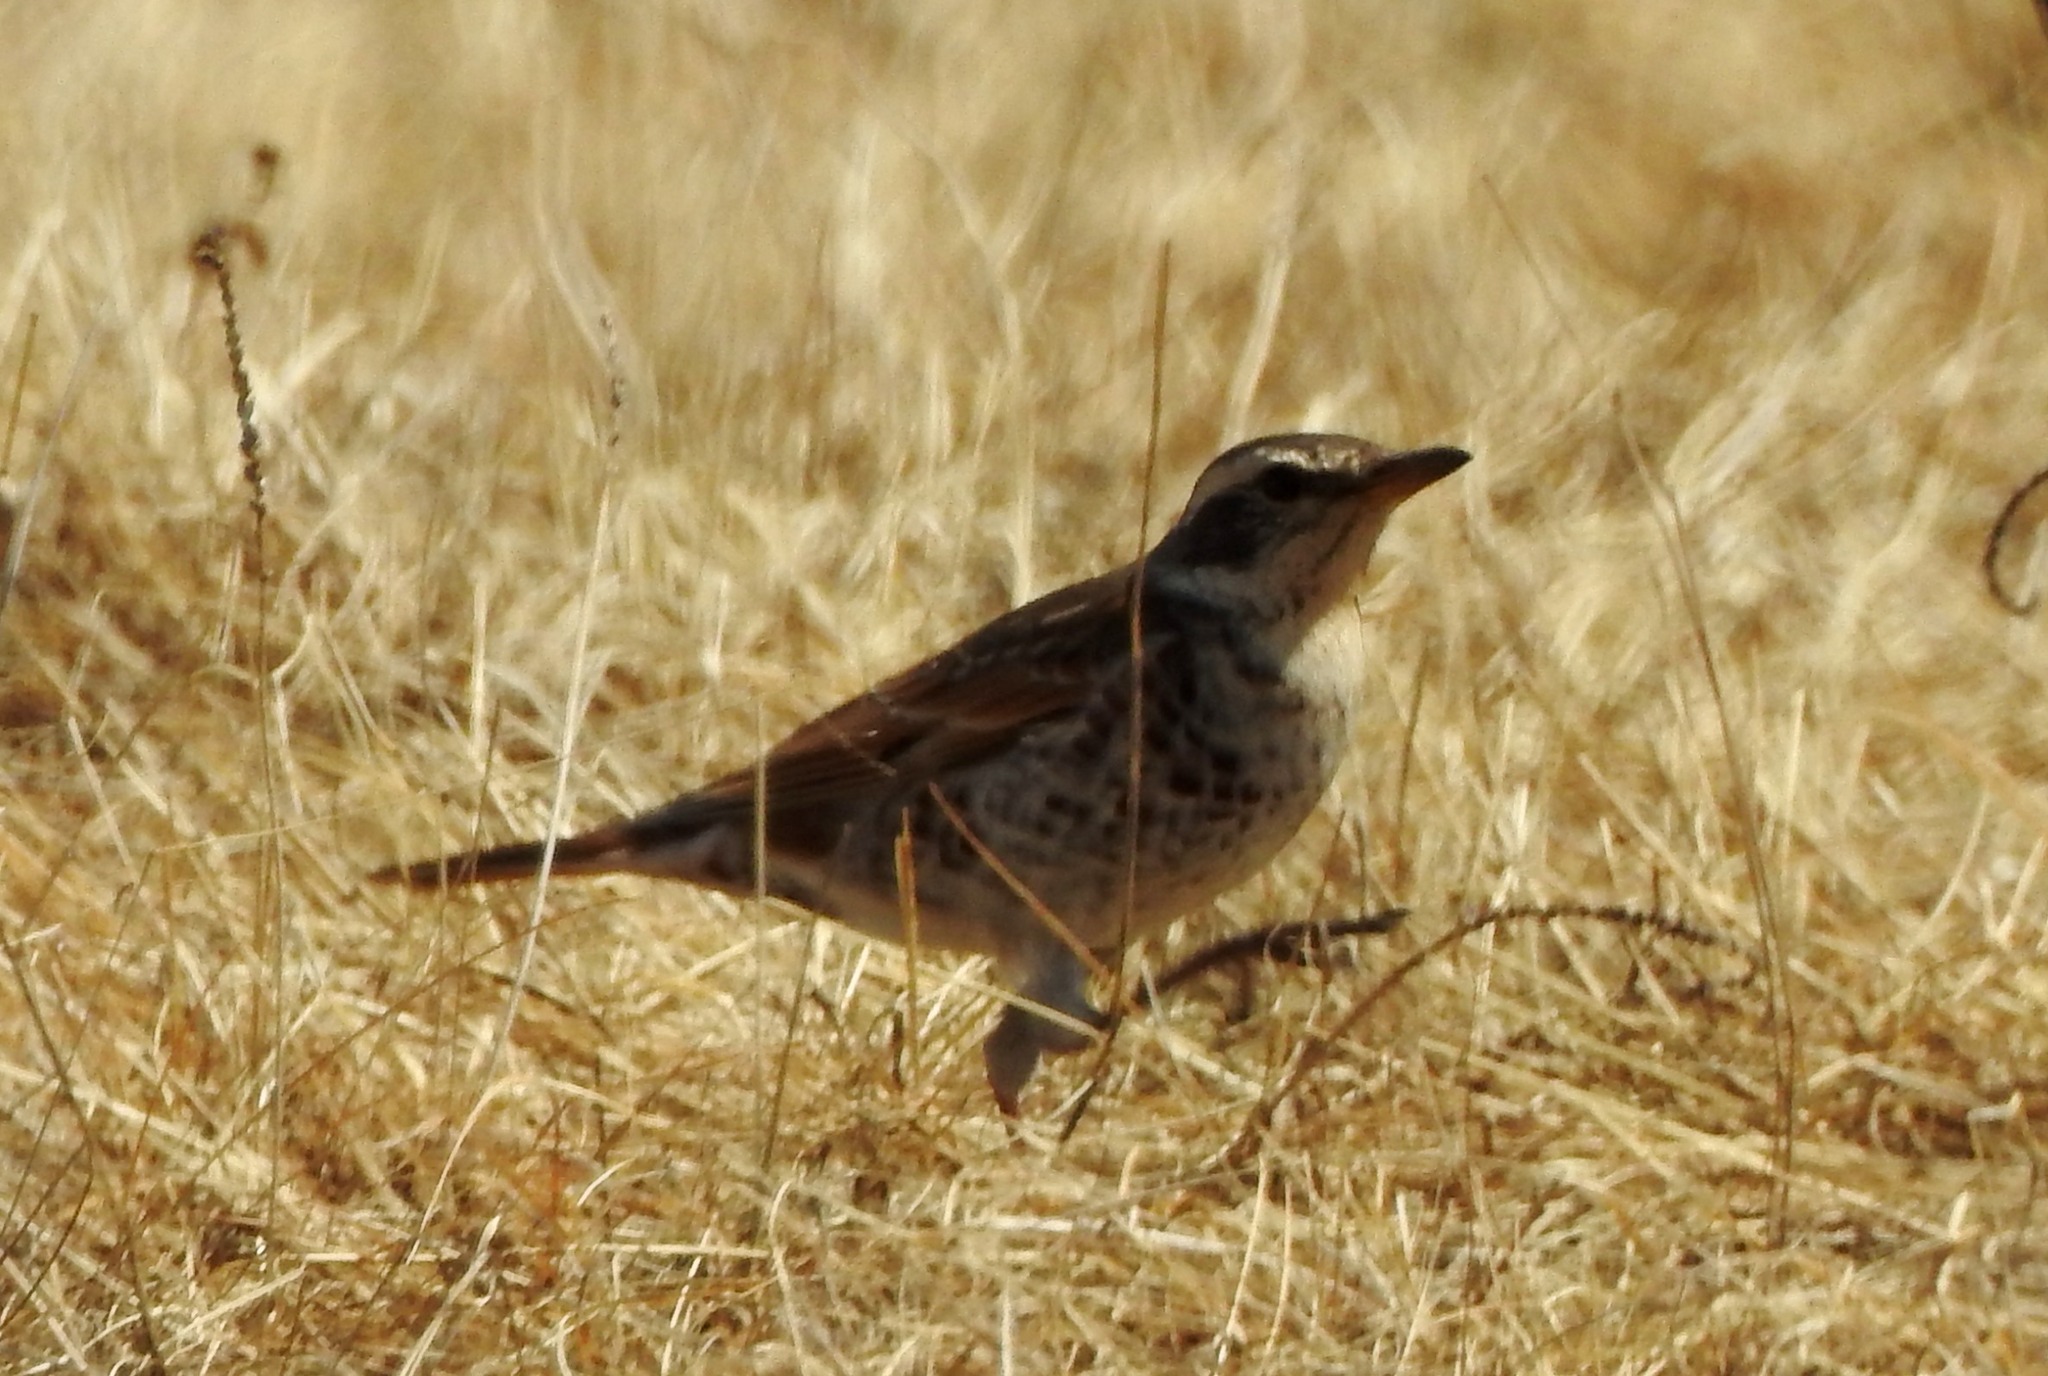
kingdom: Animalia
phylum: Chordata
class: Aves
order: Passeriformes
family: Turdidae
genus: Turdus
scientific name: Turdus eunomus
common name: Dusky thrush
